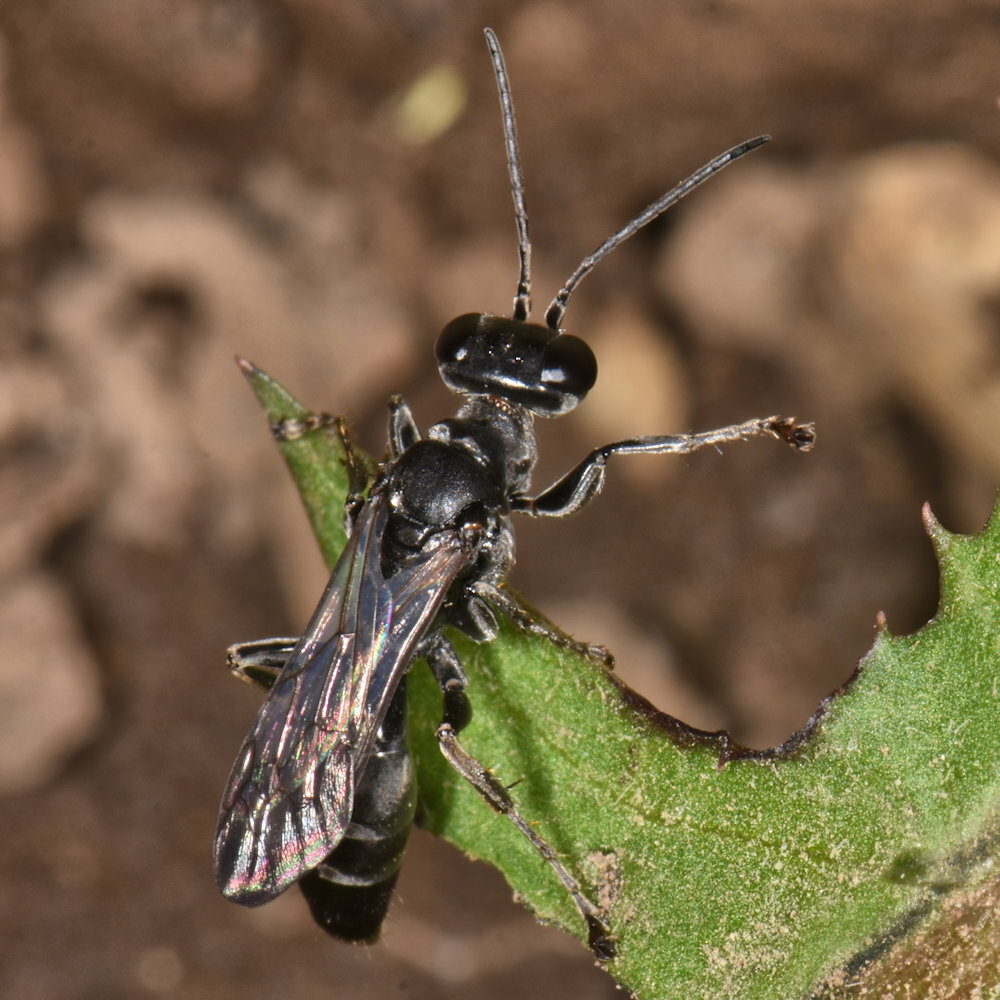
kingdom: Animalia
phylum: Arthropoda
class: Insecta
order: Hymenoptera
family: Crabronidae
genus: Lyroda
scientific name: Lyroda subita
